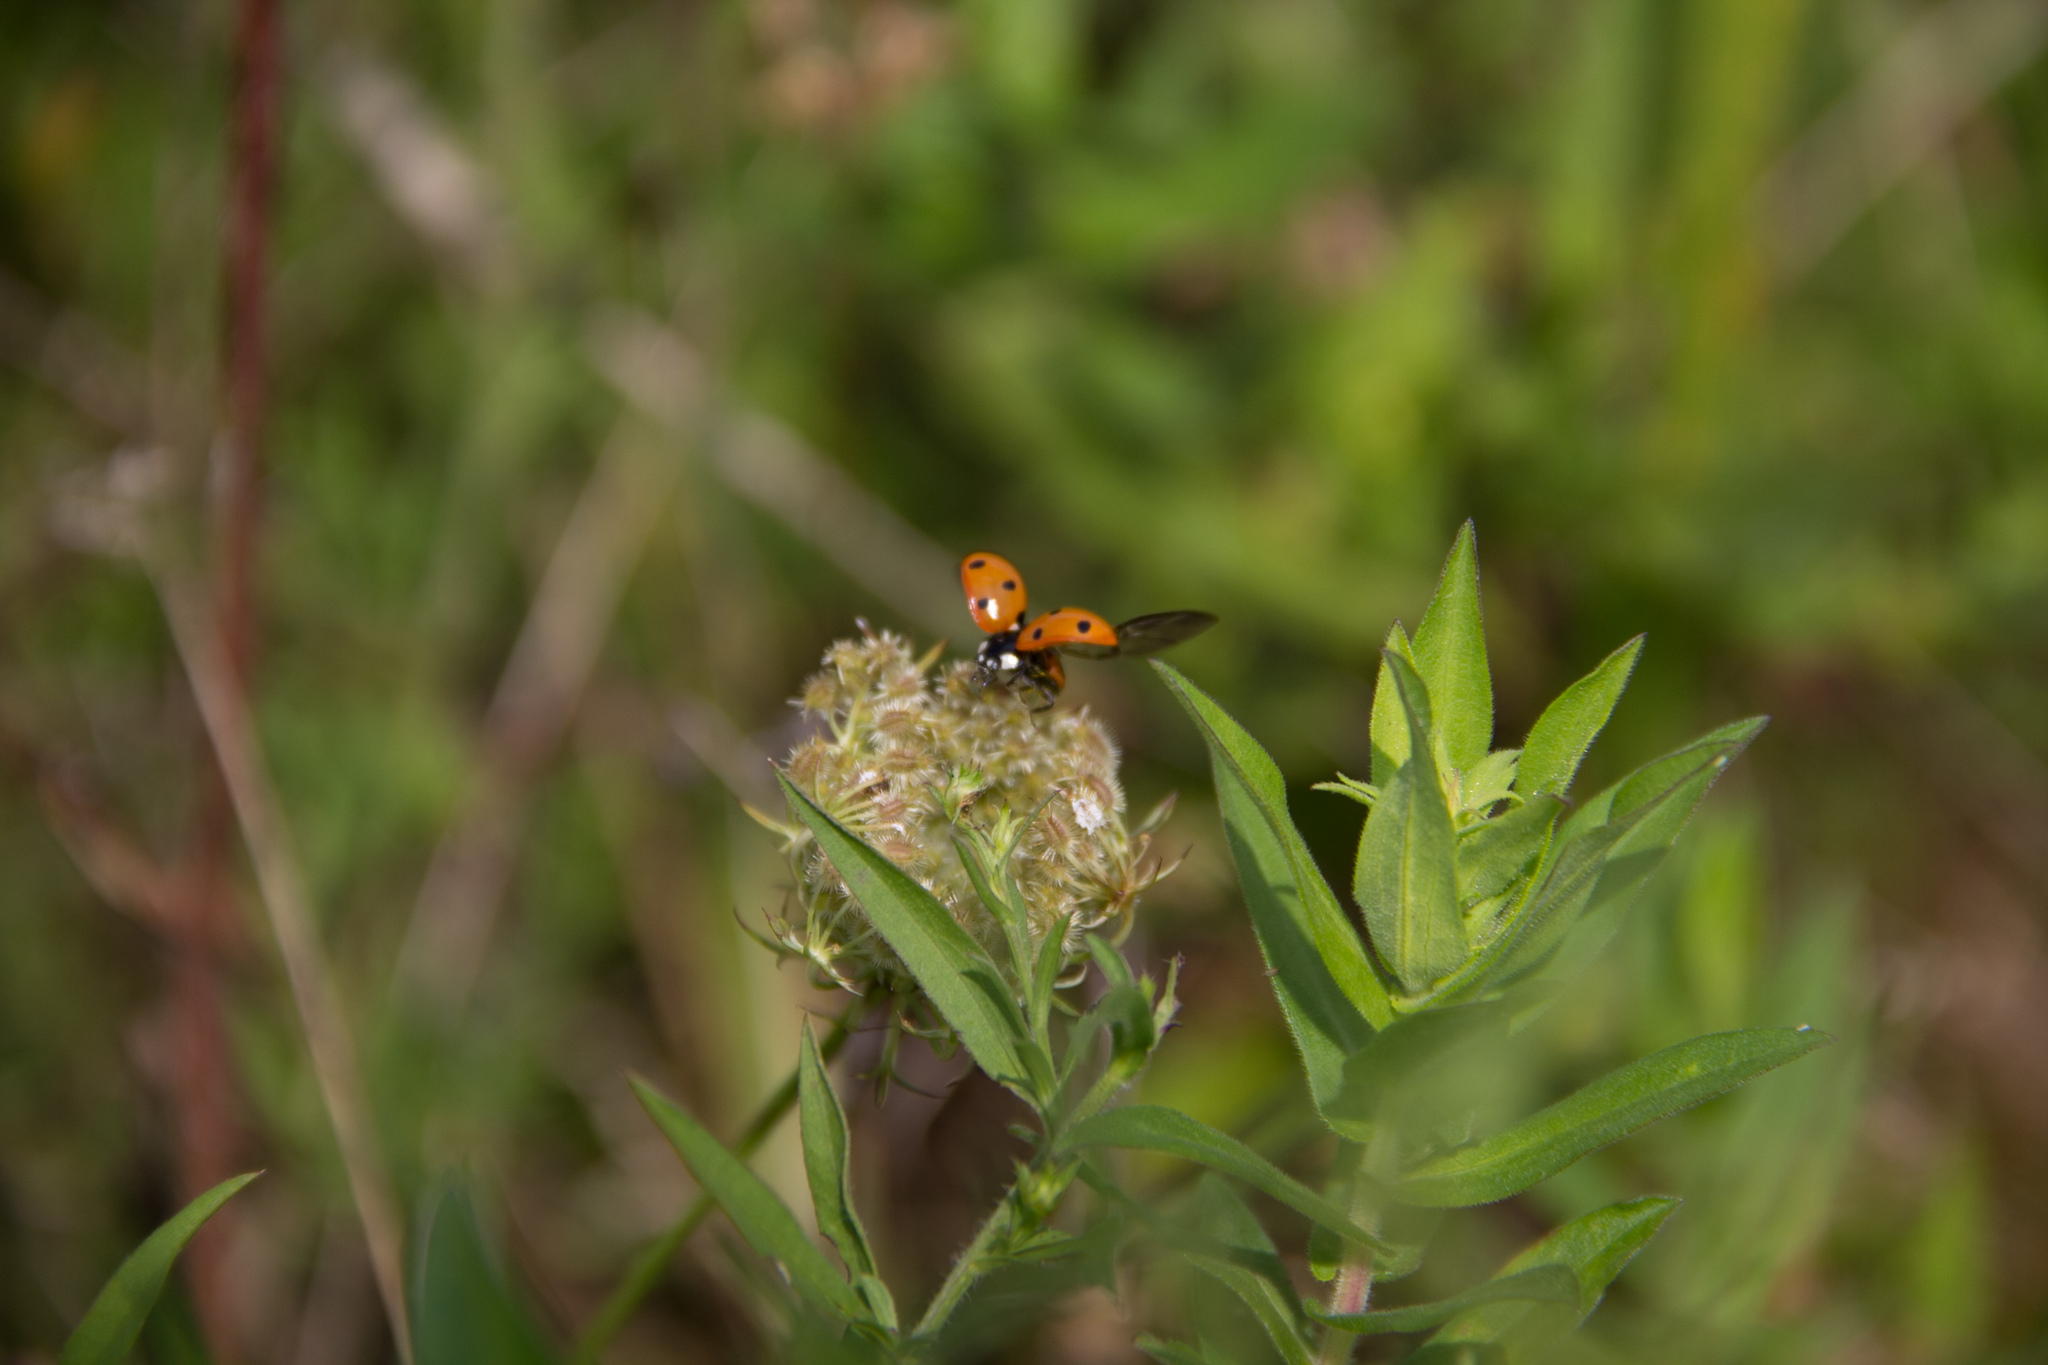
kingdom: Animalia
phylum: Arthropoda
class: Insecta
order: Coleoptera
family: Coccinellidae
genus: Coccinella
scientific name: Coccinella septempunctata
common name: Sevenspotted lady beetle
